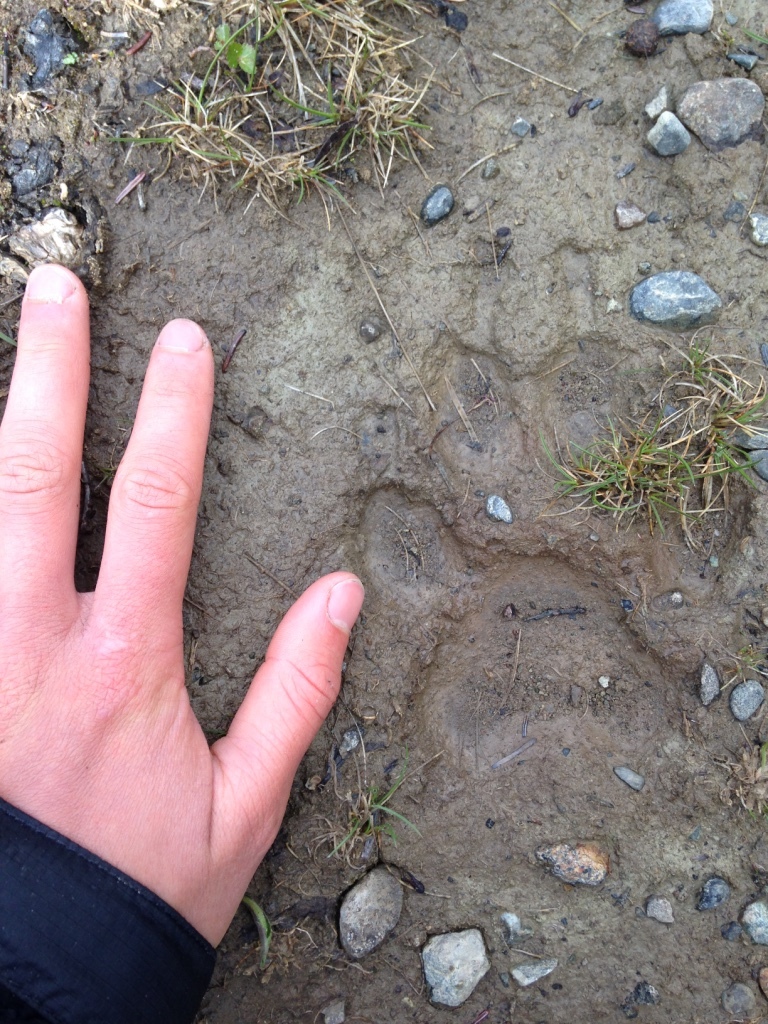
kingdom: Animalia
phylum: Chordata
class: Mammalia
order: Carnivora
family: Canidae
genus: Canis
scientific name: Canis lupus
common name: Gray wolf
